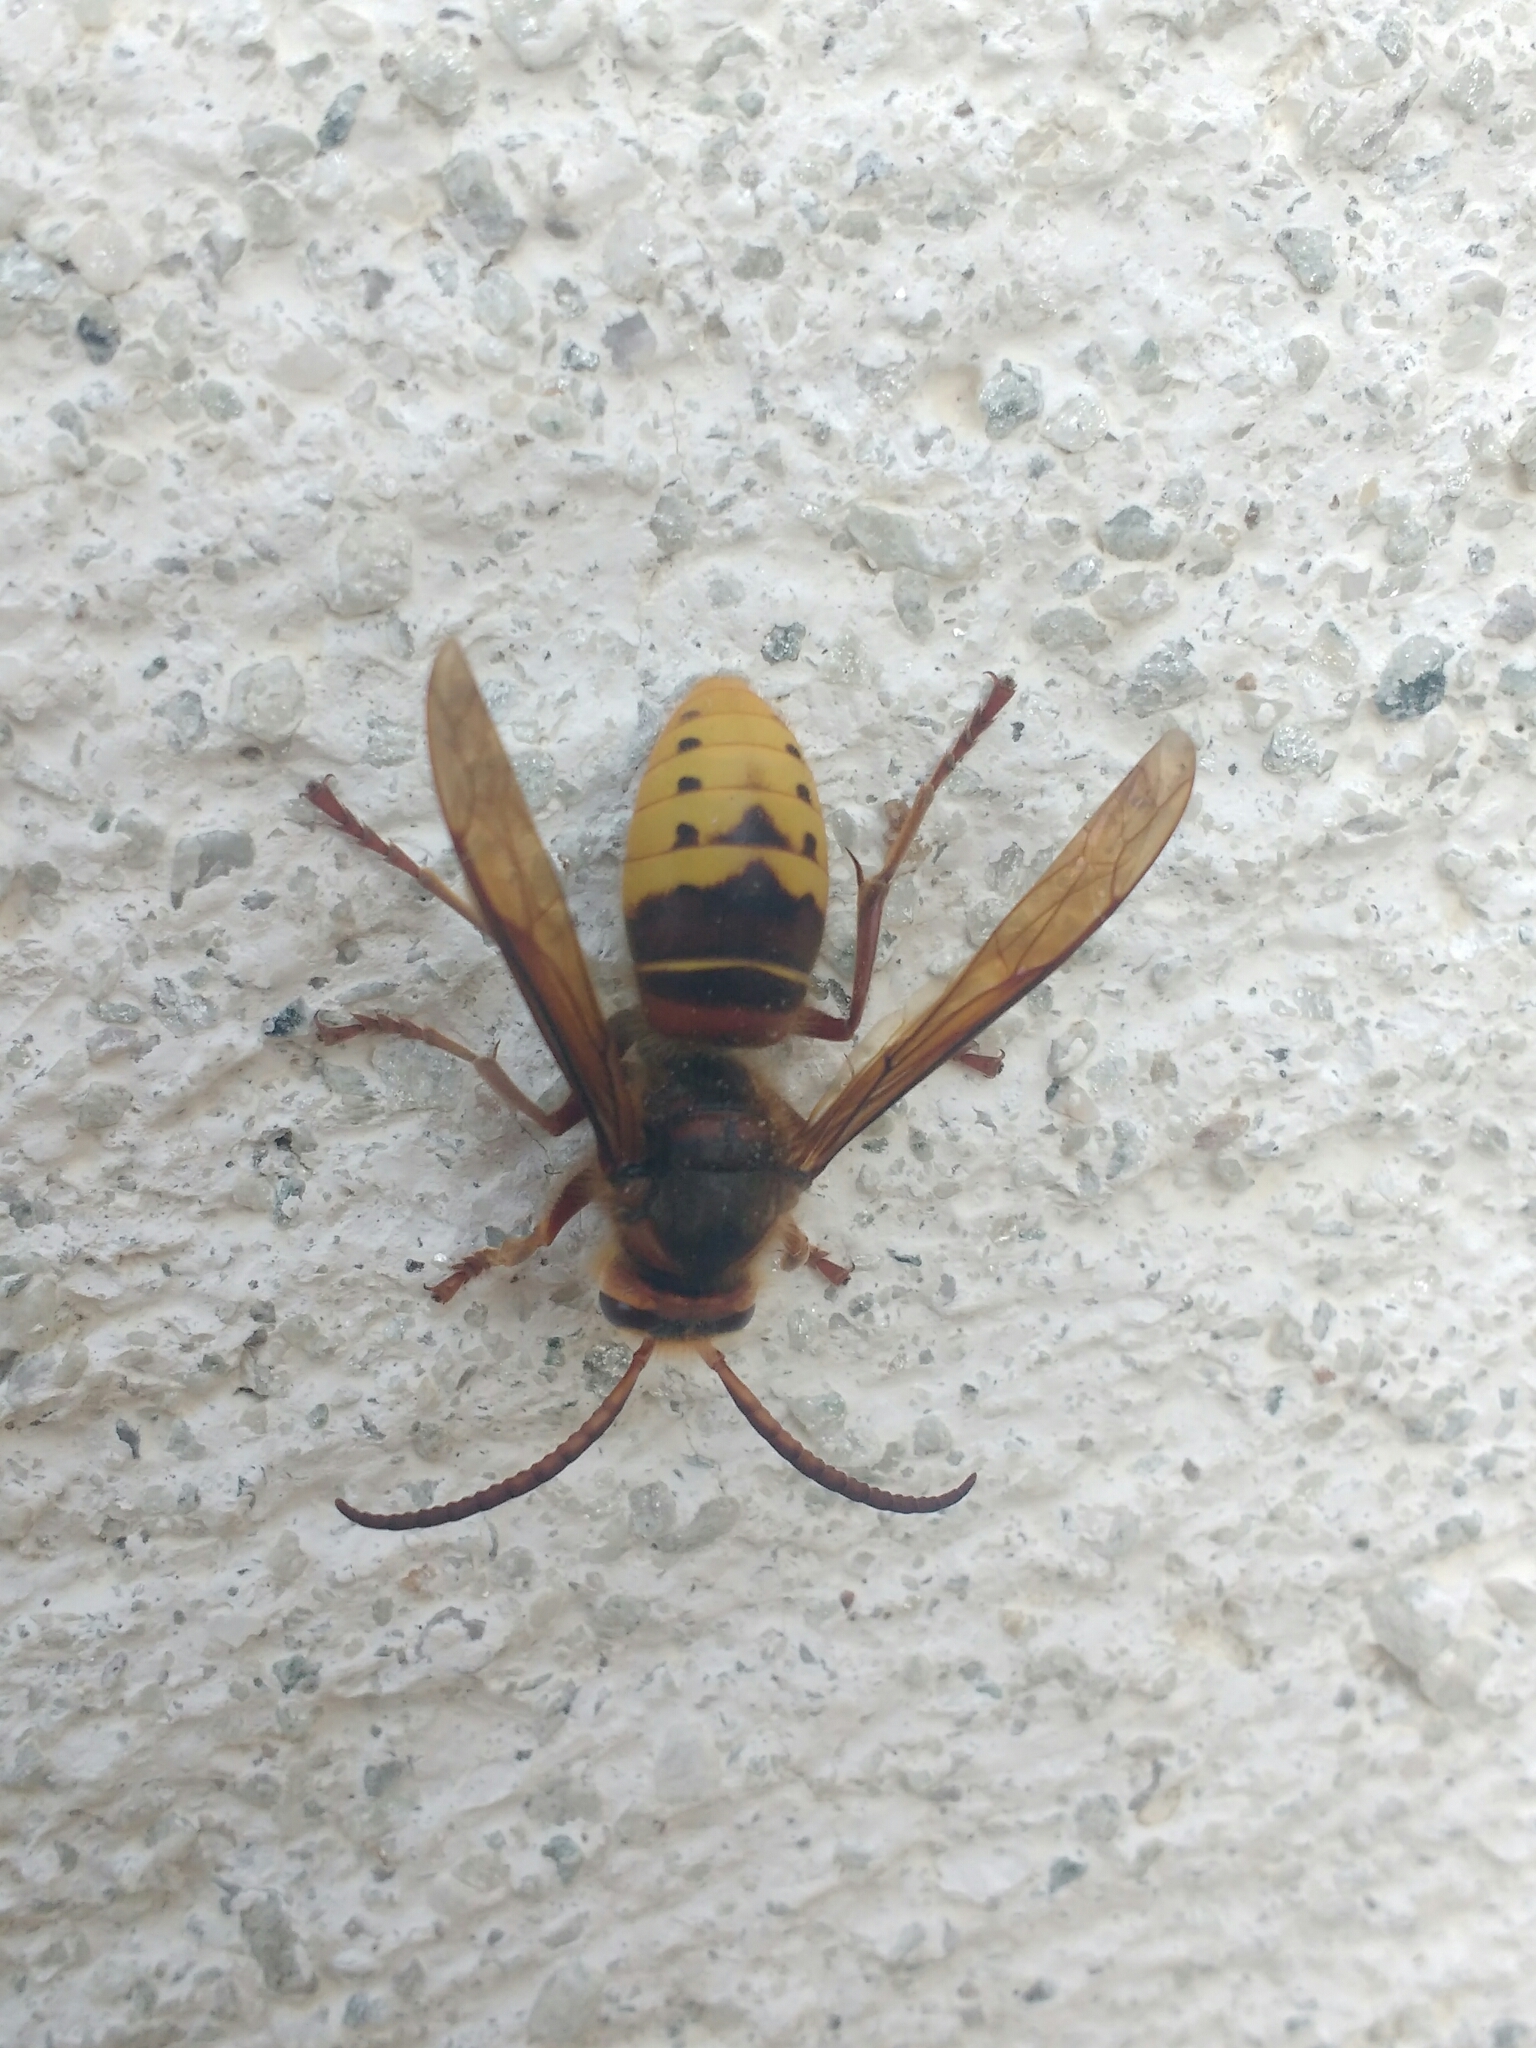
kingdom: Animalia
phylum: Arthropoda
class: Insecta
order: Hymenoptera
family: Vespidae
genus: Vespa
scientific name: Vespa crabro
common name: Hornet
